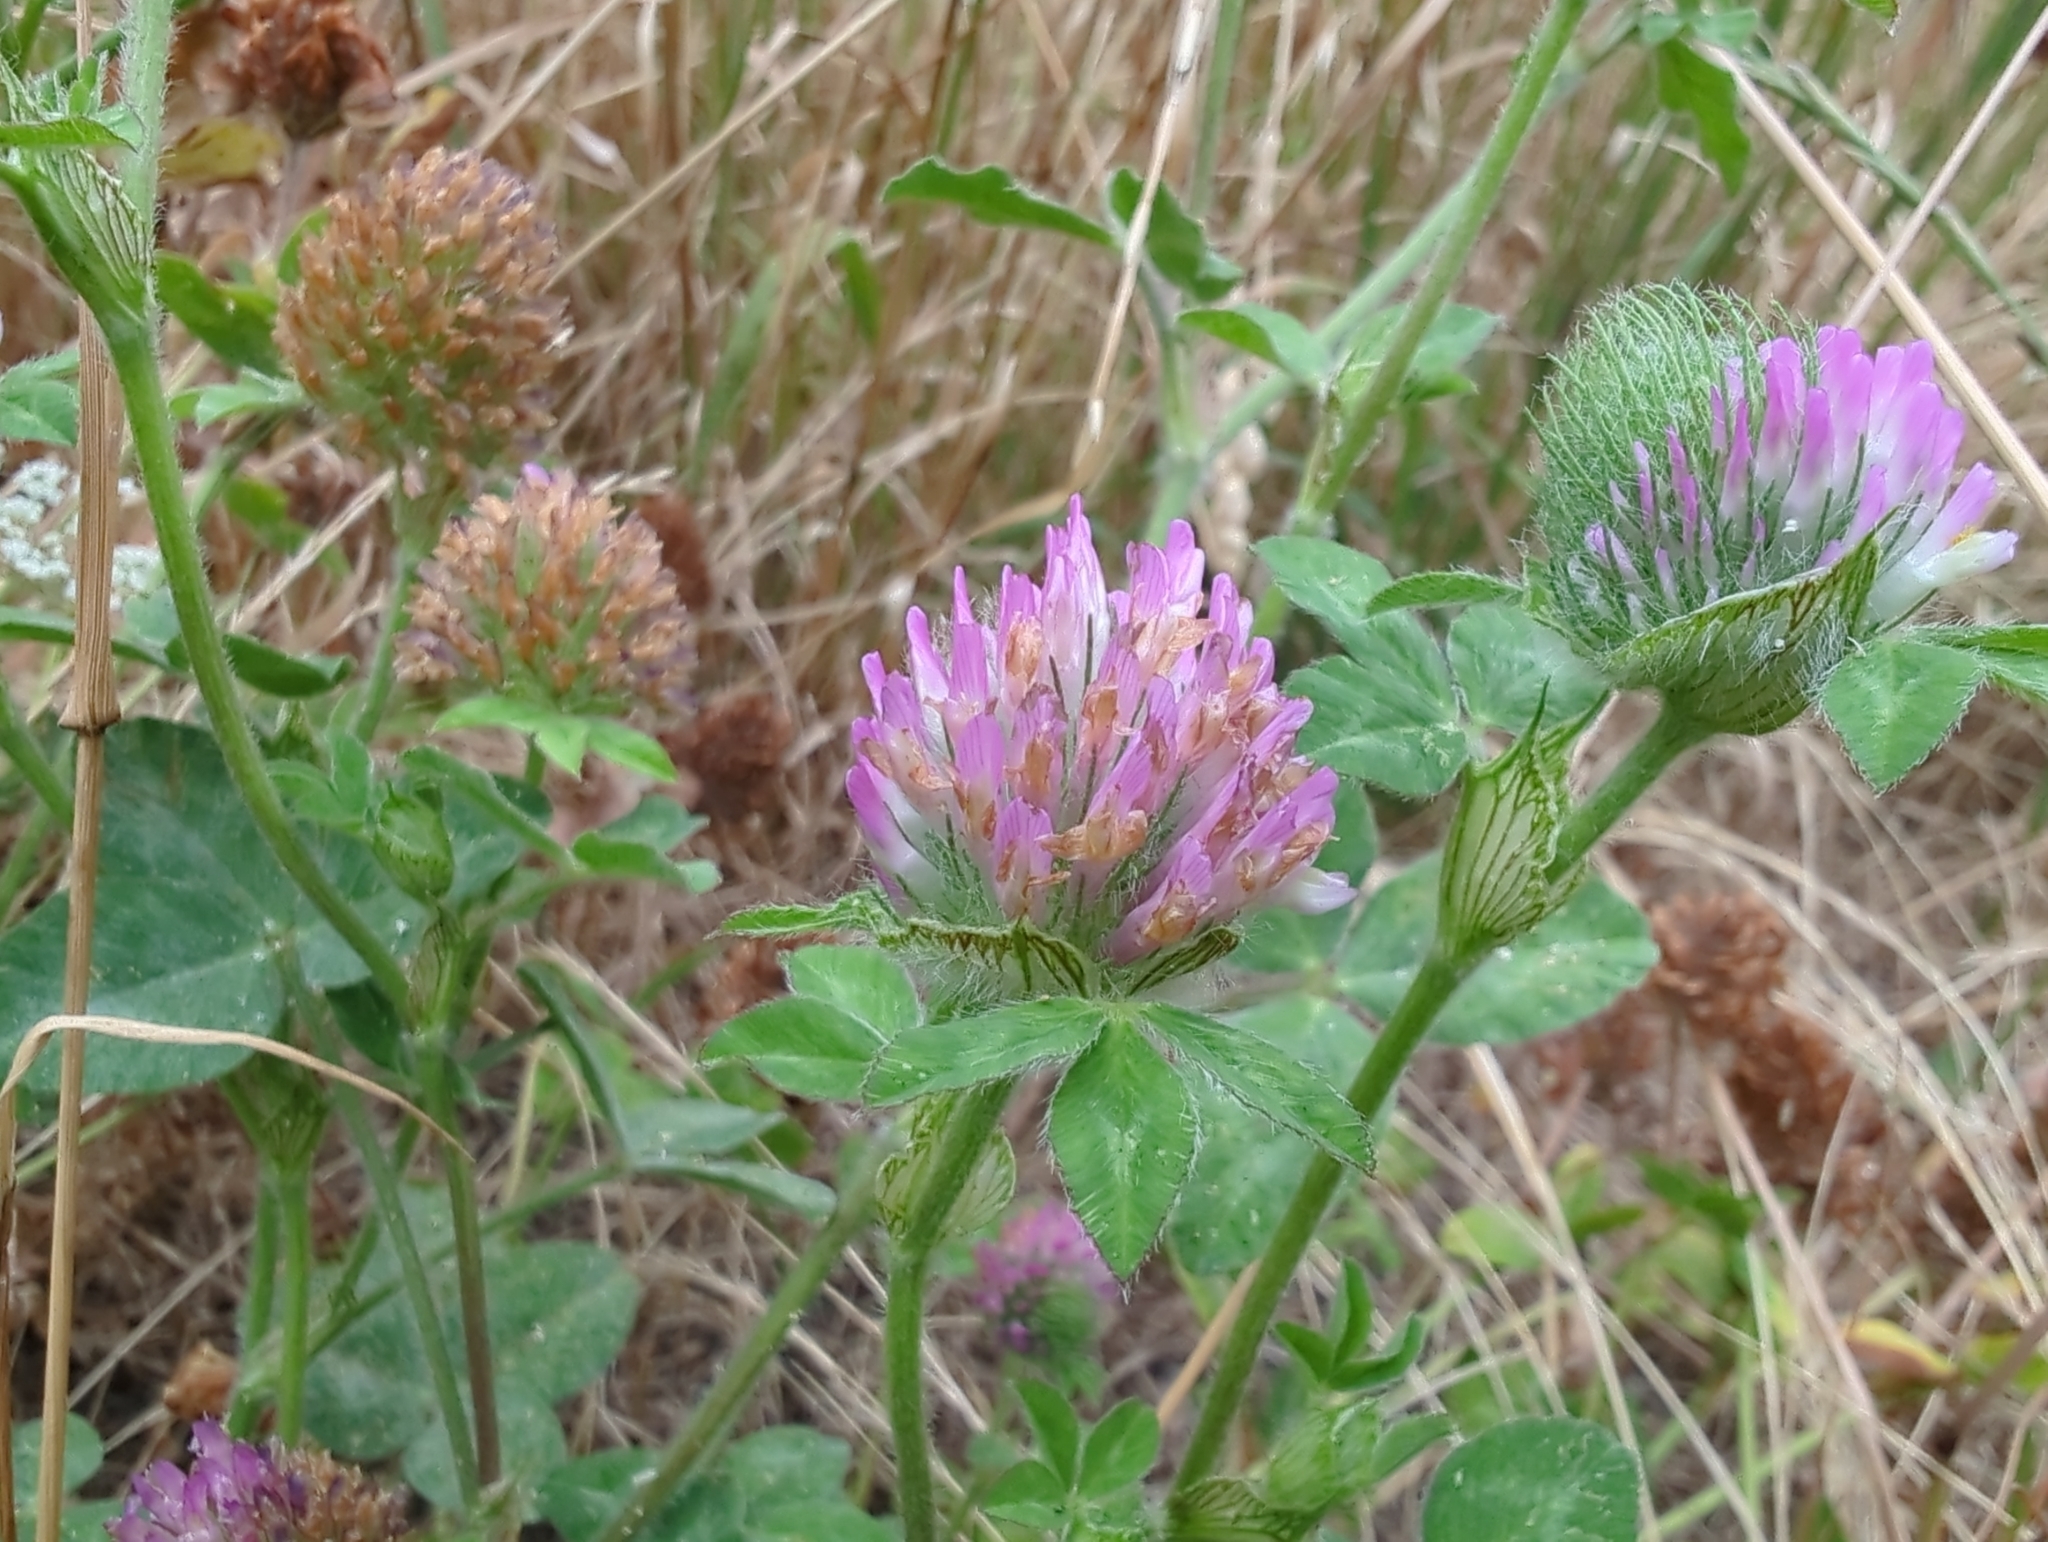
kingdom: Plantae
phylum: Tracheophyta
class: Magnoliopsida
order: Fabales
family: Fabaceae
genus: Trifolium
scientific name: Trifolium pratense
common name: Red clover
